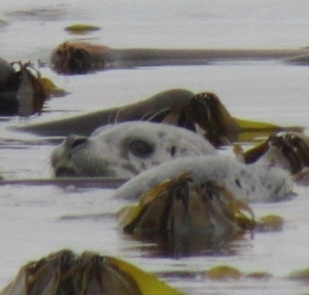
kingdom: Animalia
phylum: Chordata
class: Mammalia
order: Carnivora
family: Phocidae
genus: Phoca
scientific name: Phoca vitulina
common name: Harbor seal
